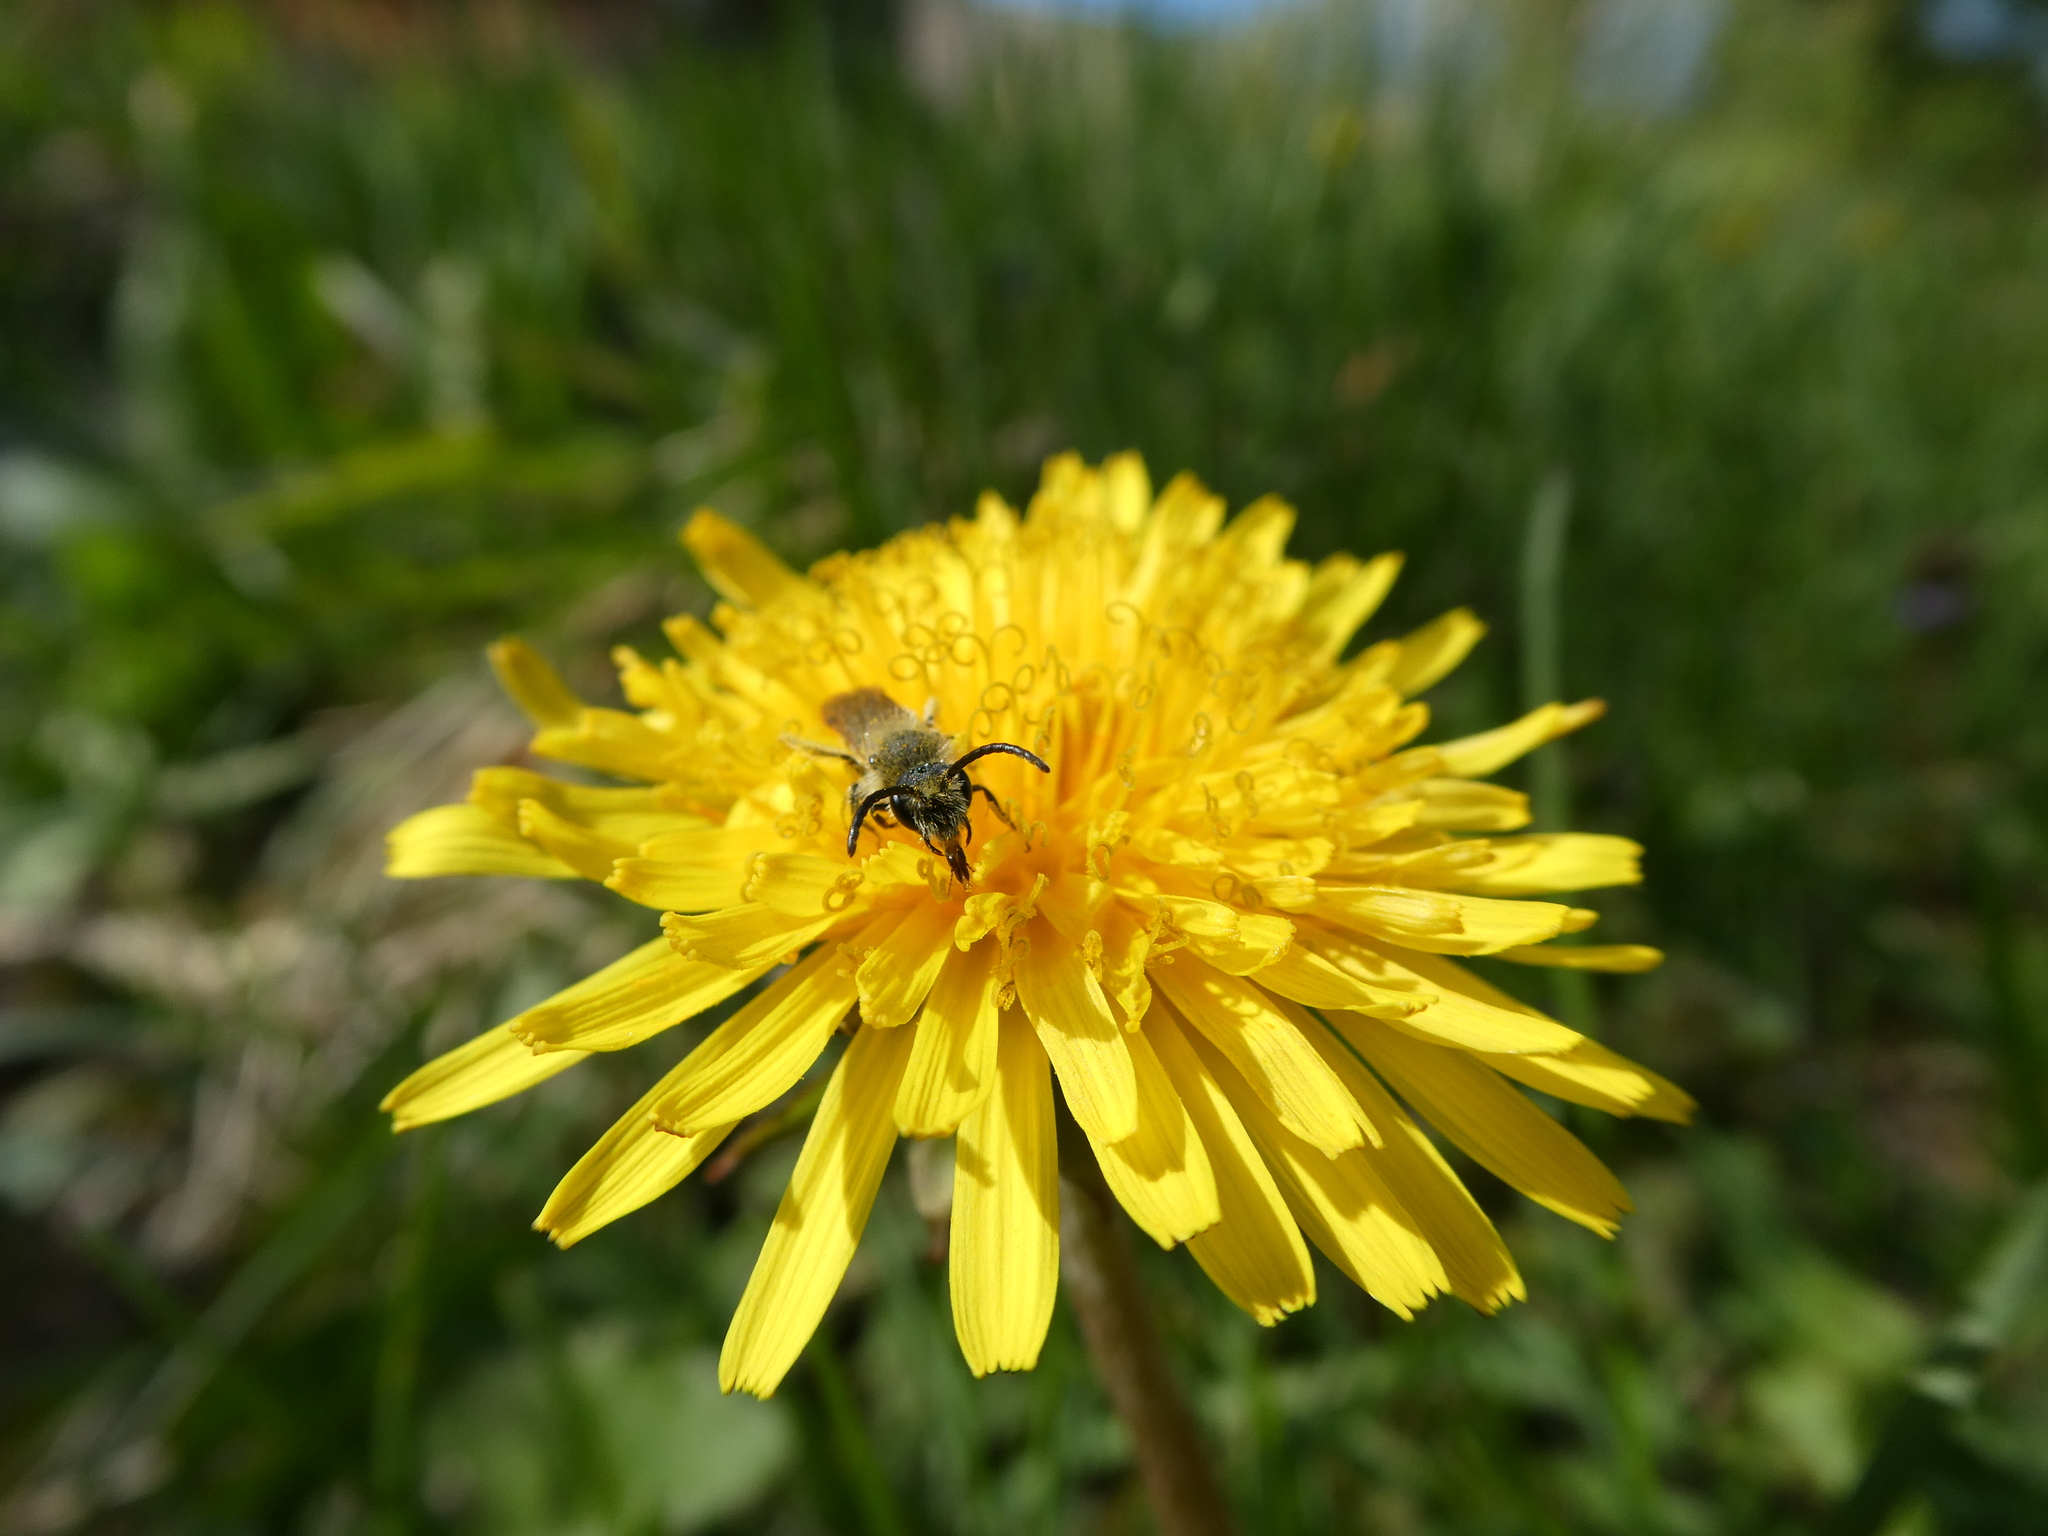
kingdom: Animalia
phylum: Arthropoda
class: Insecta
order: Hymenoptera
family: Andrenidae
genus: Andrena
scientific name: Andrena
